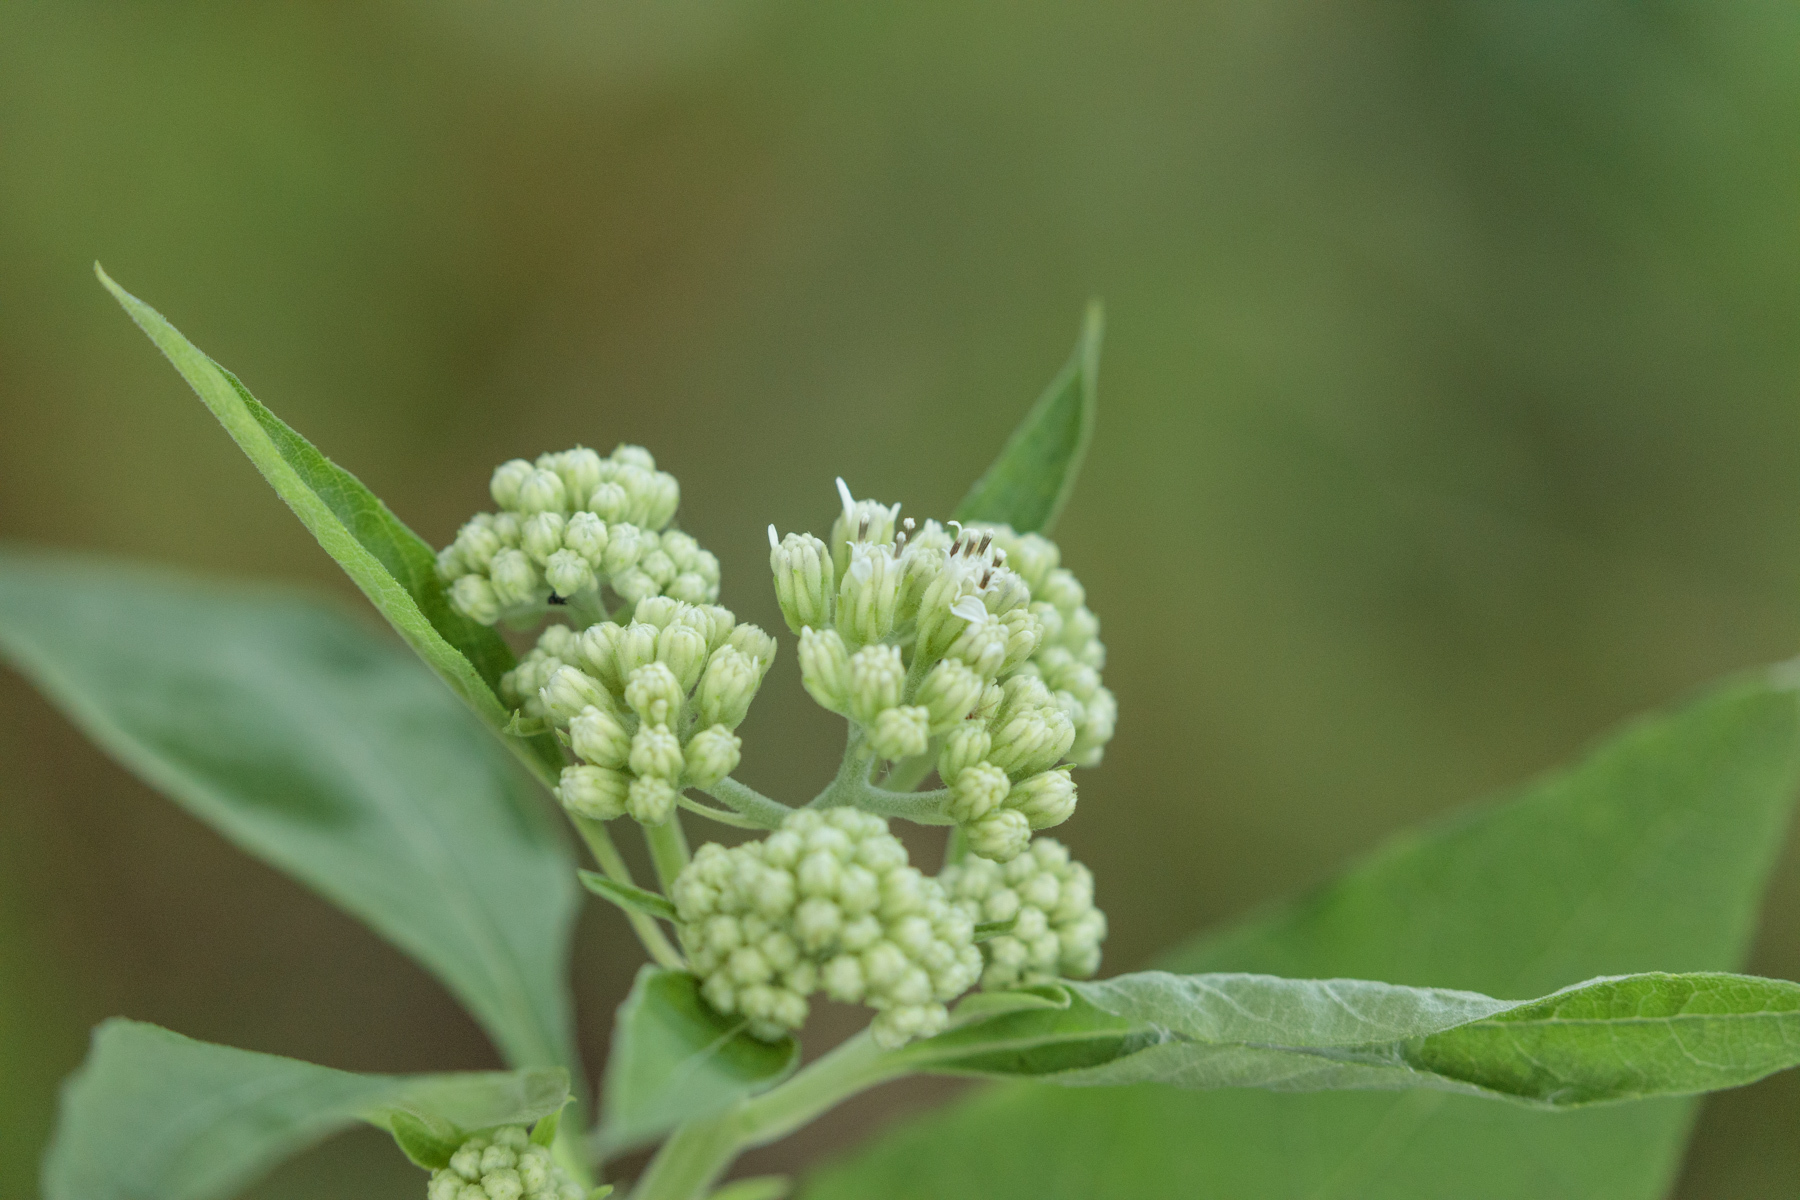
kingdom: Plantae
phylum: Tracheophyta
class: Magnoliopsida
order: Asterales
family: Asteraceae
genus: Verbesina
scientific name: Verbesina virginica
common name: Frostweed
